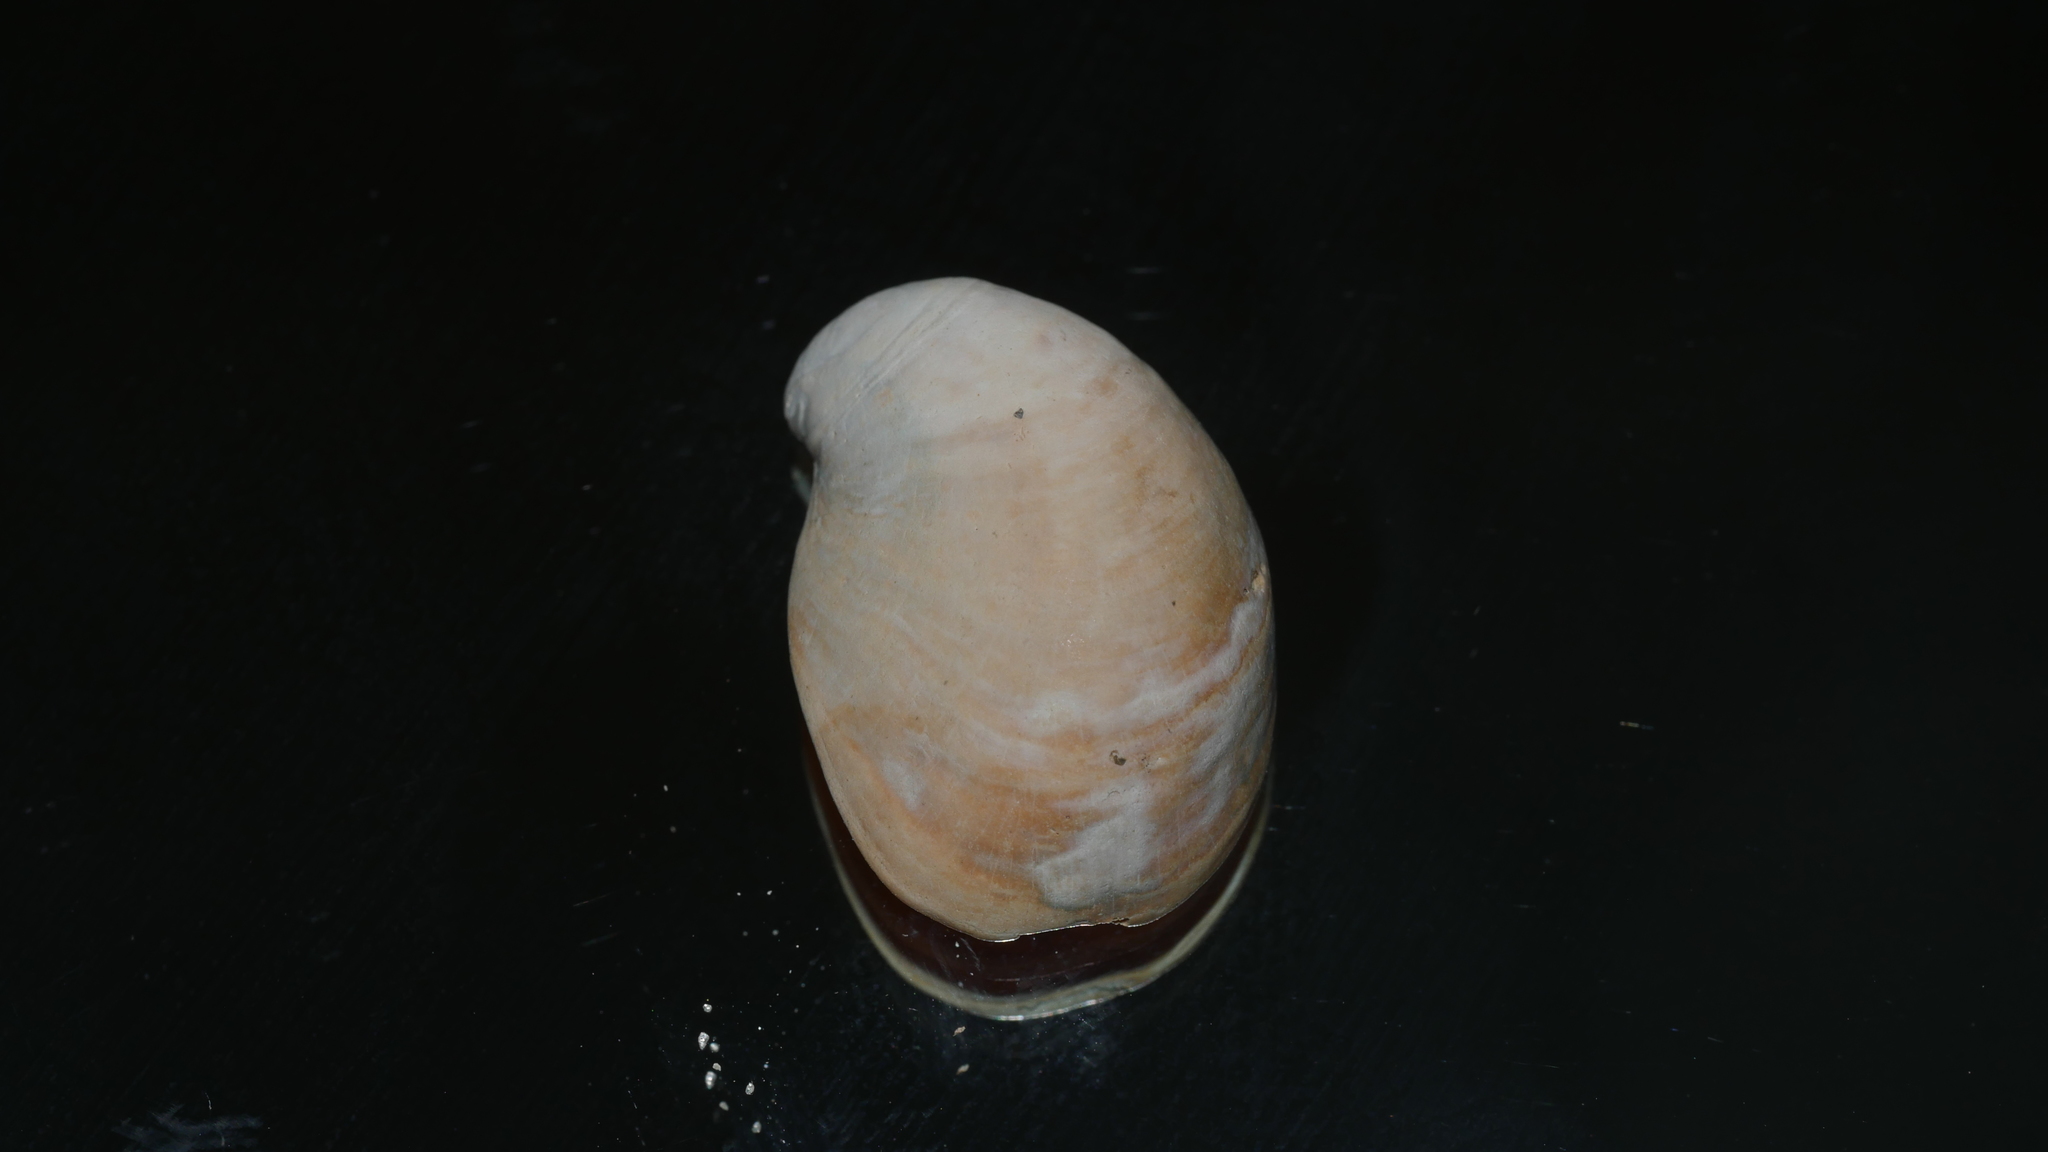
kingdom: Animalia
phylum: Mollusca
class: Gastropoda
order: Littorinimorpha
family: Calyptraeidae
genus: Crepidula
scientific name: Crepidula fornicata
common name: Slipper limpet
